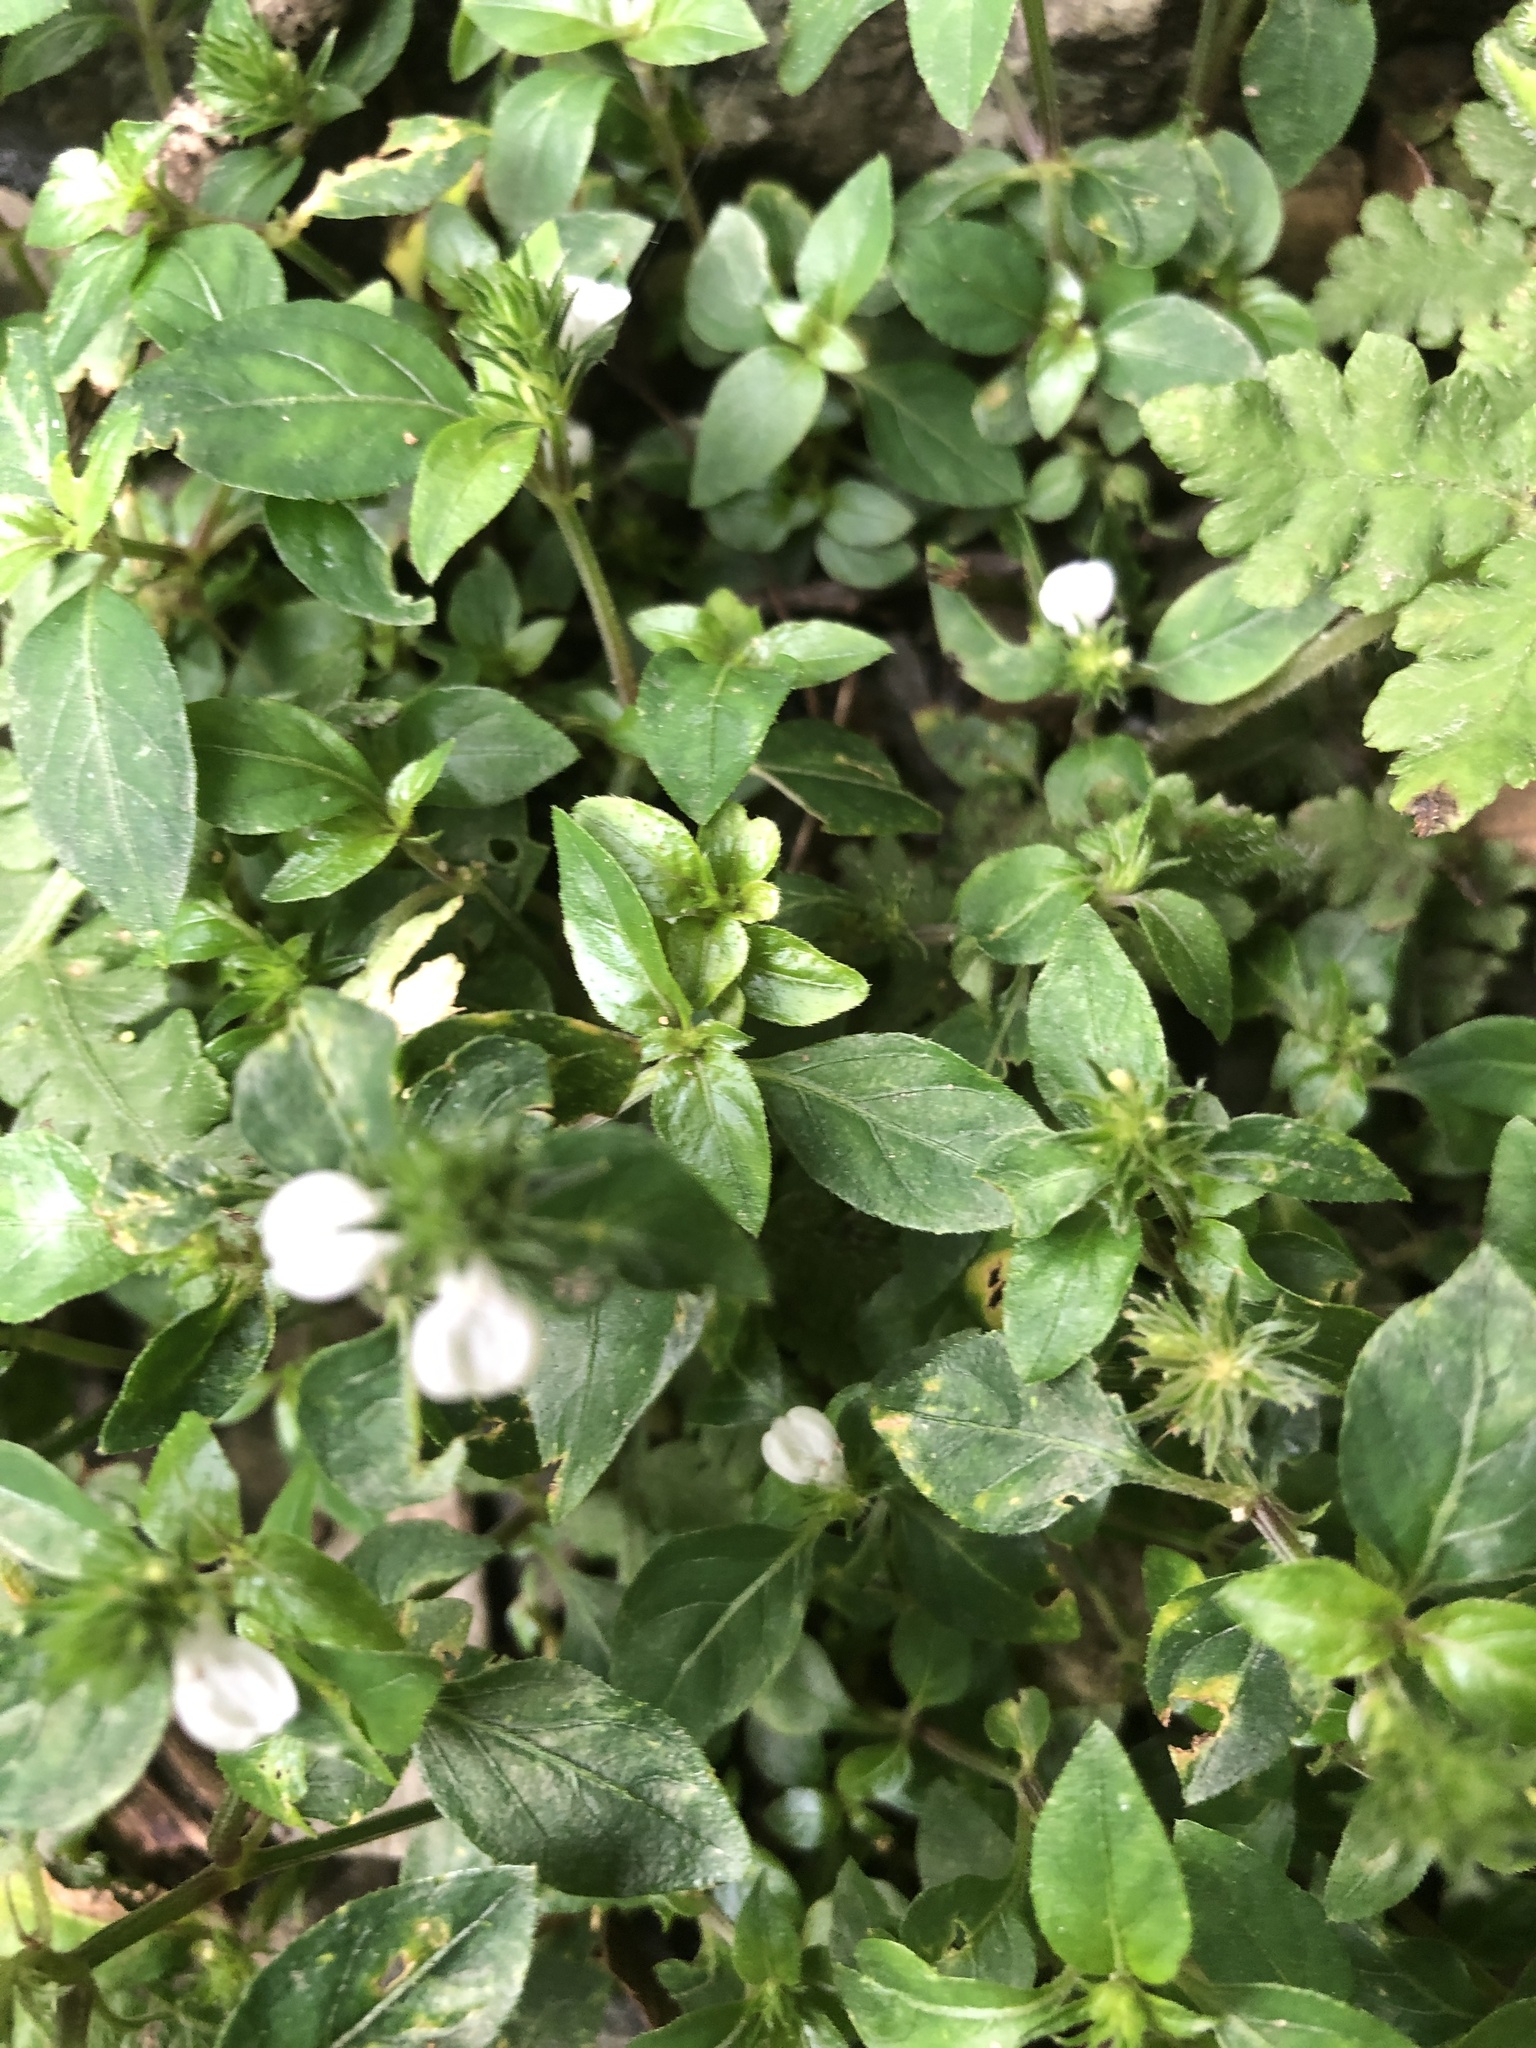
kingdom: Plantae
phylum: Tracheophyta
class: Magnoliopsida
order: Lamiales
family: Acanthaceae
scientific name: Acanthaceae
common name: Acanthaceae
